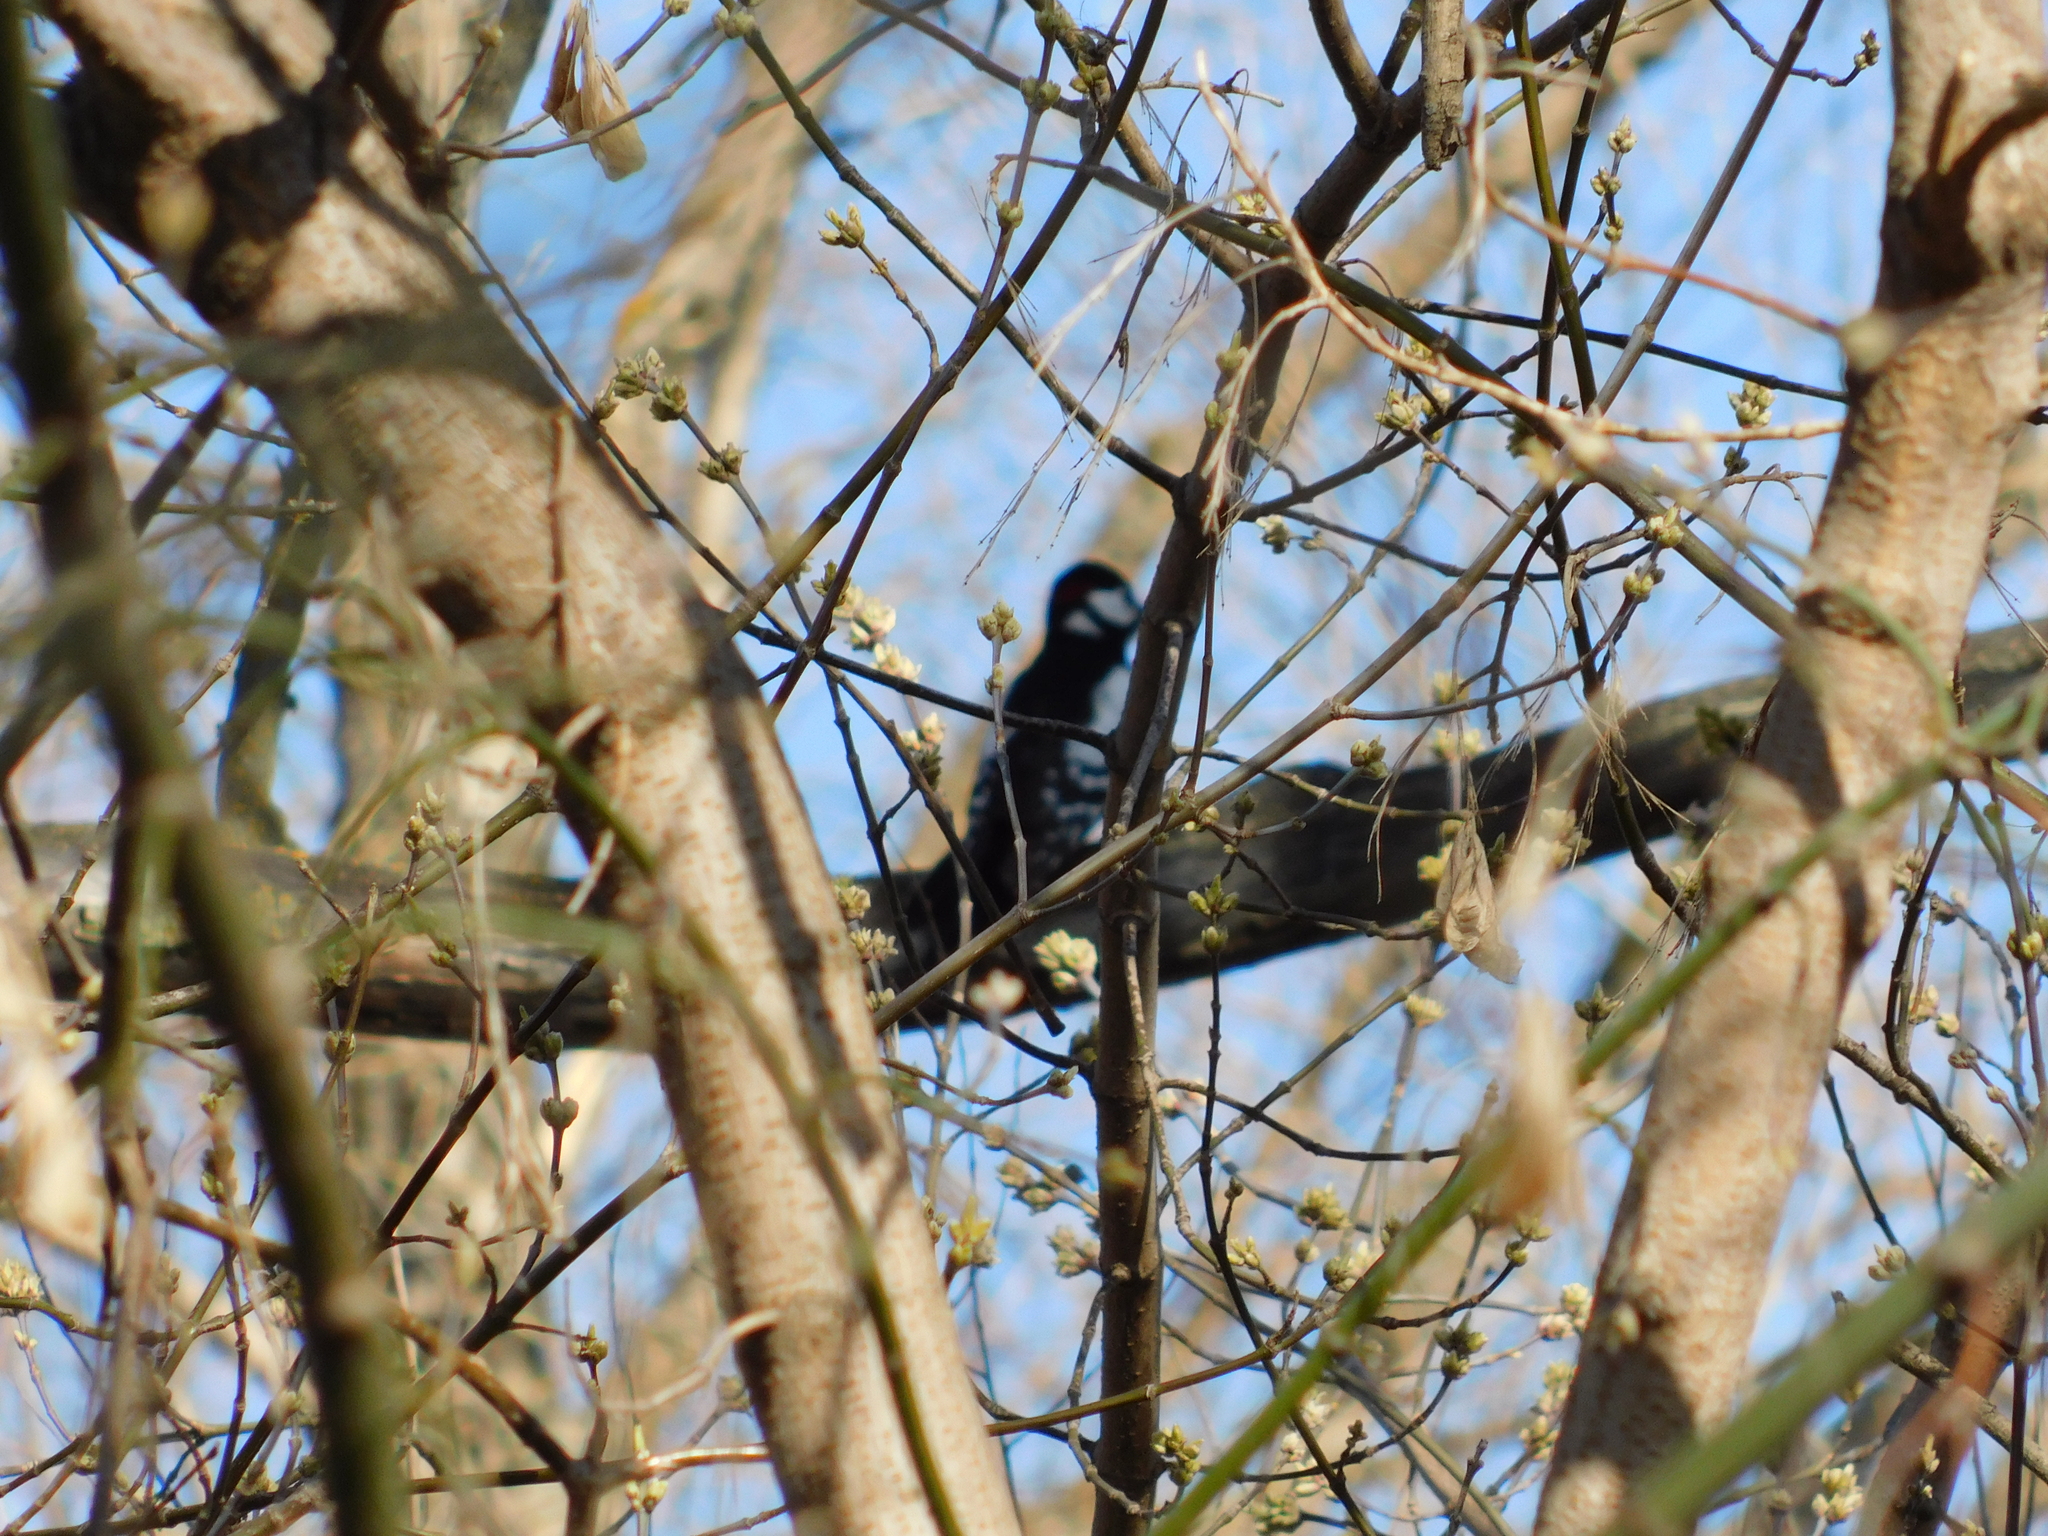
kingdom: Animalia
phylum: Chordata
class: Aves
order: Piciformes
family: Picidae
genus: Dendrocopos
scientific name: Dendrocopos major
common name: Great spotted woodpecker
